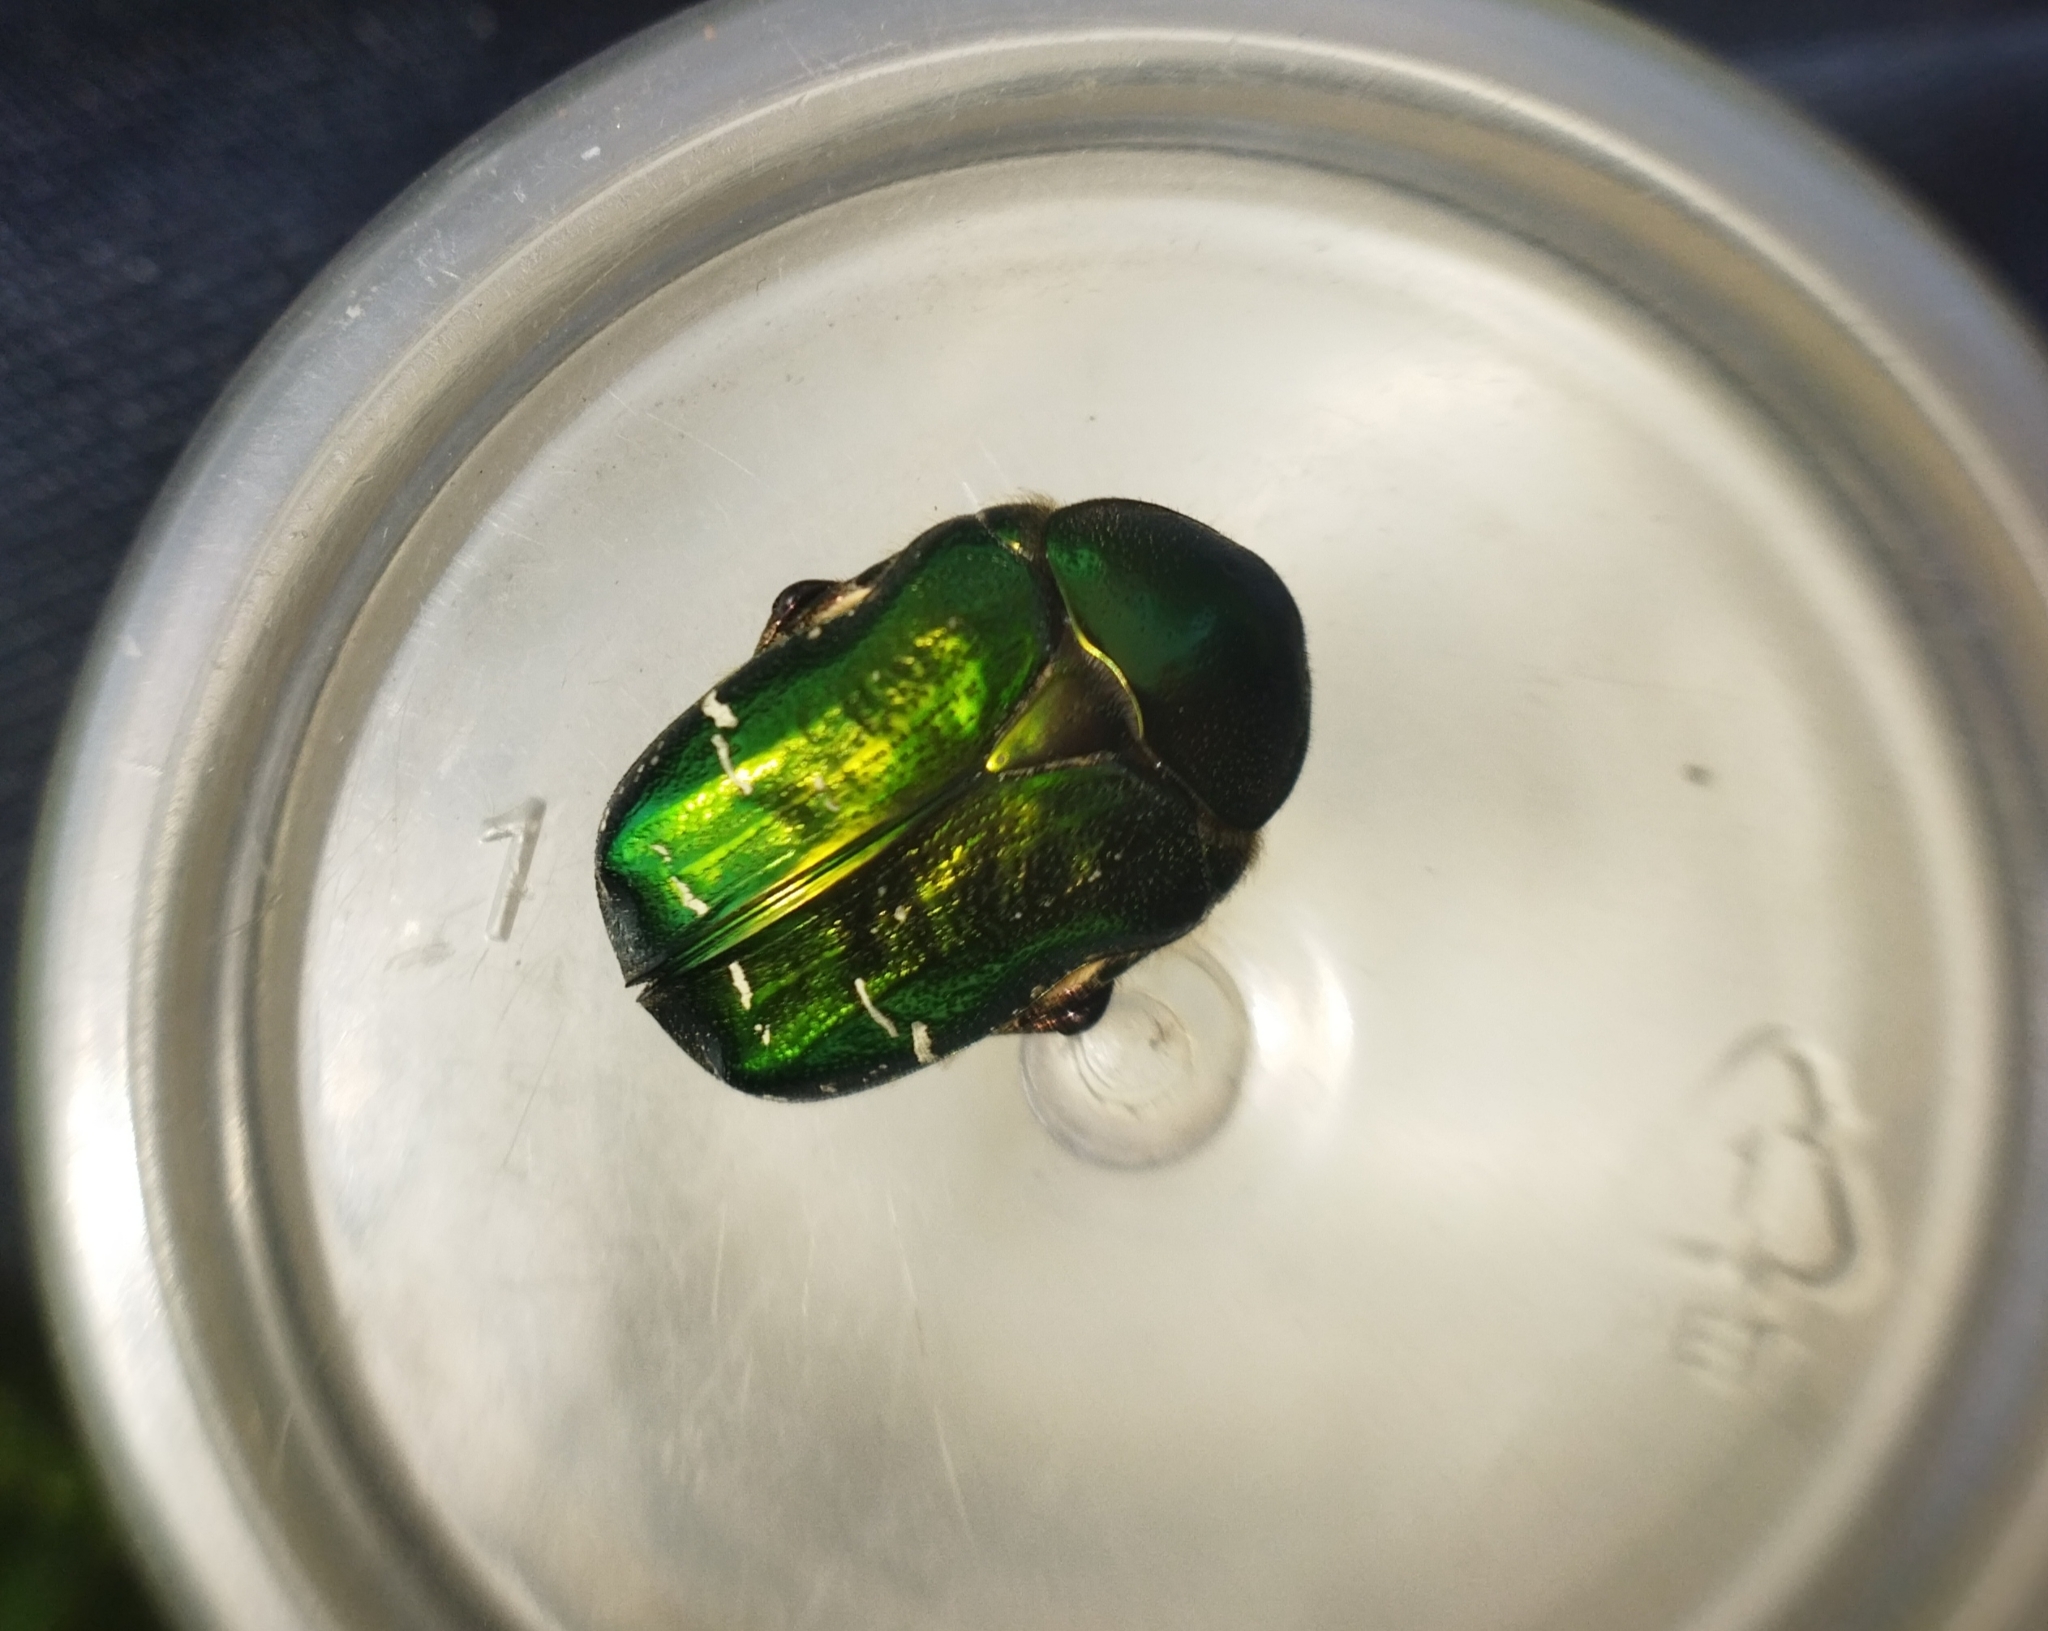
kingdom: Animalia
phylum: Arthropoda
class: Insecta
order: Coleoptera
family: Scarabaeidae
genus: Cetonia
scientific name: Cetonia aurata
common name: Rose chafer
